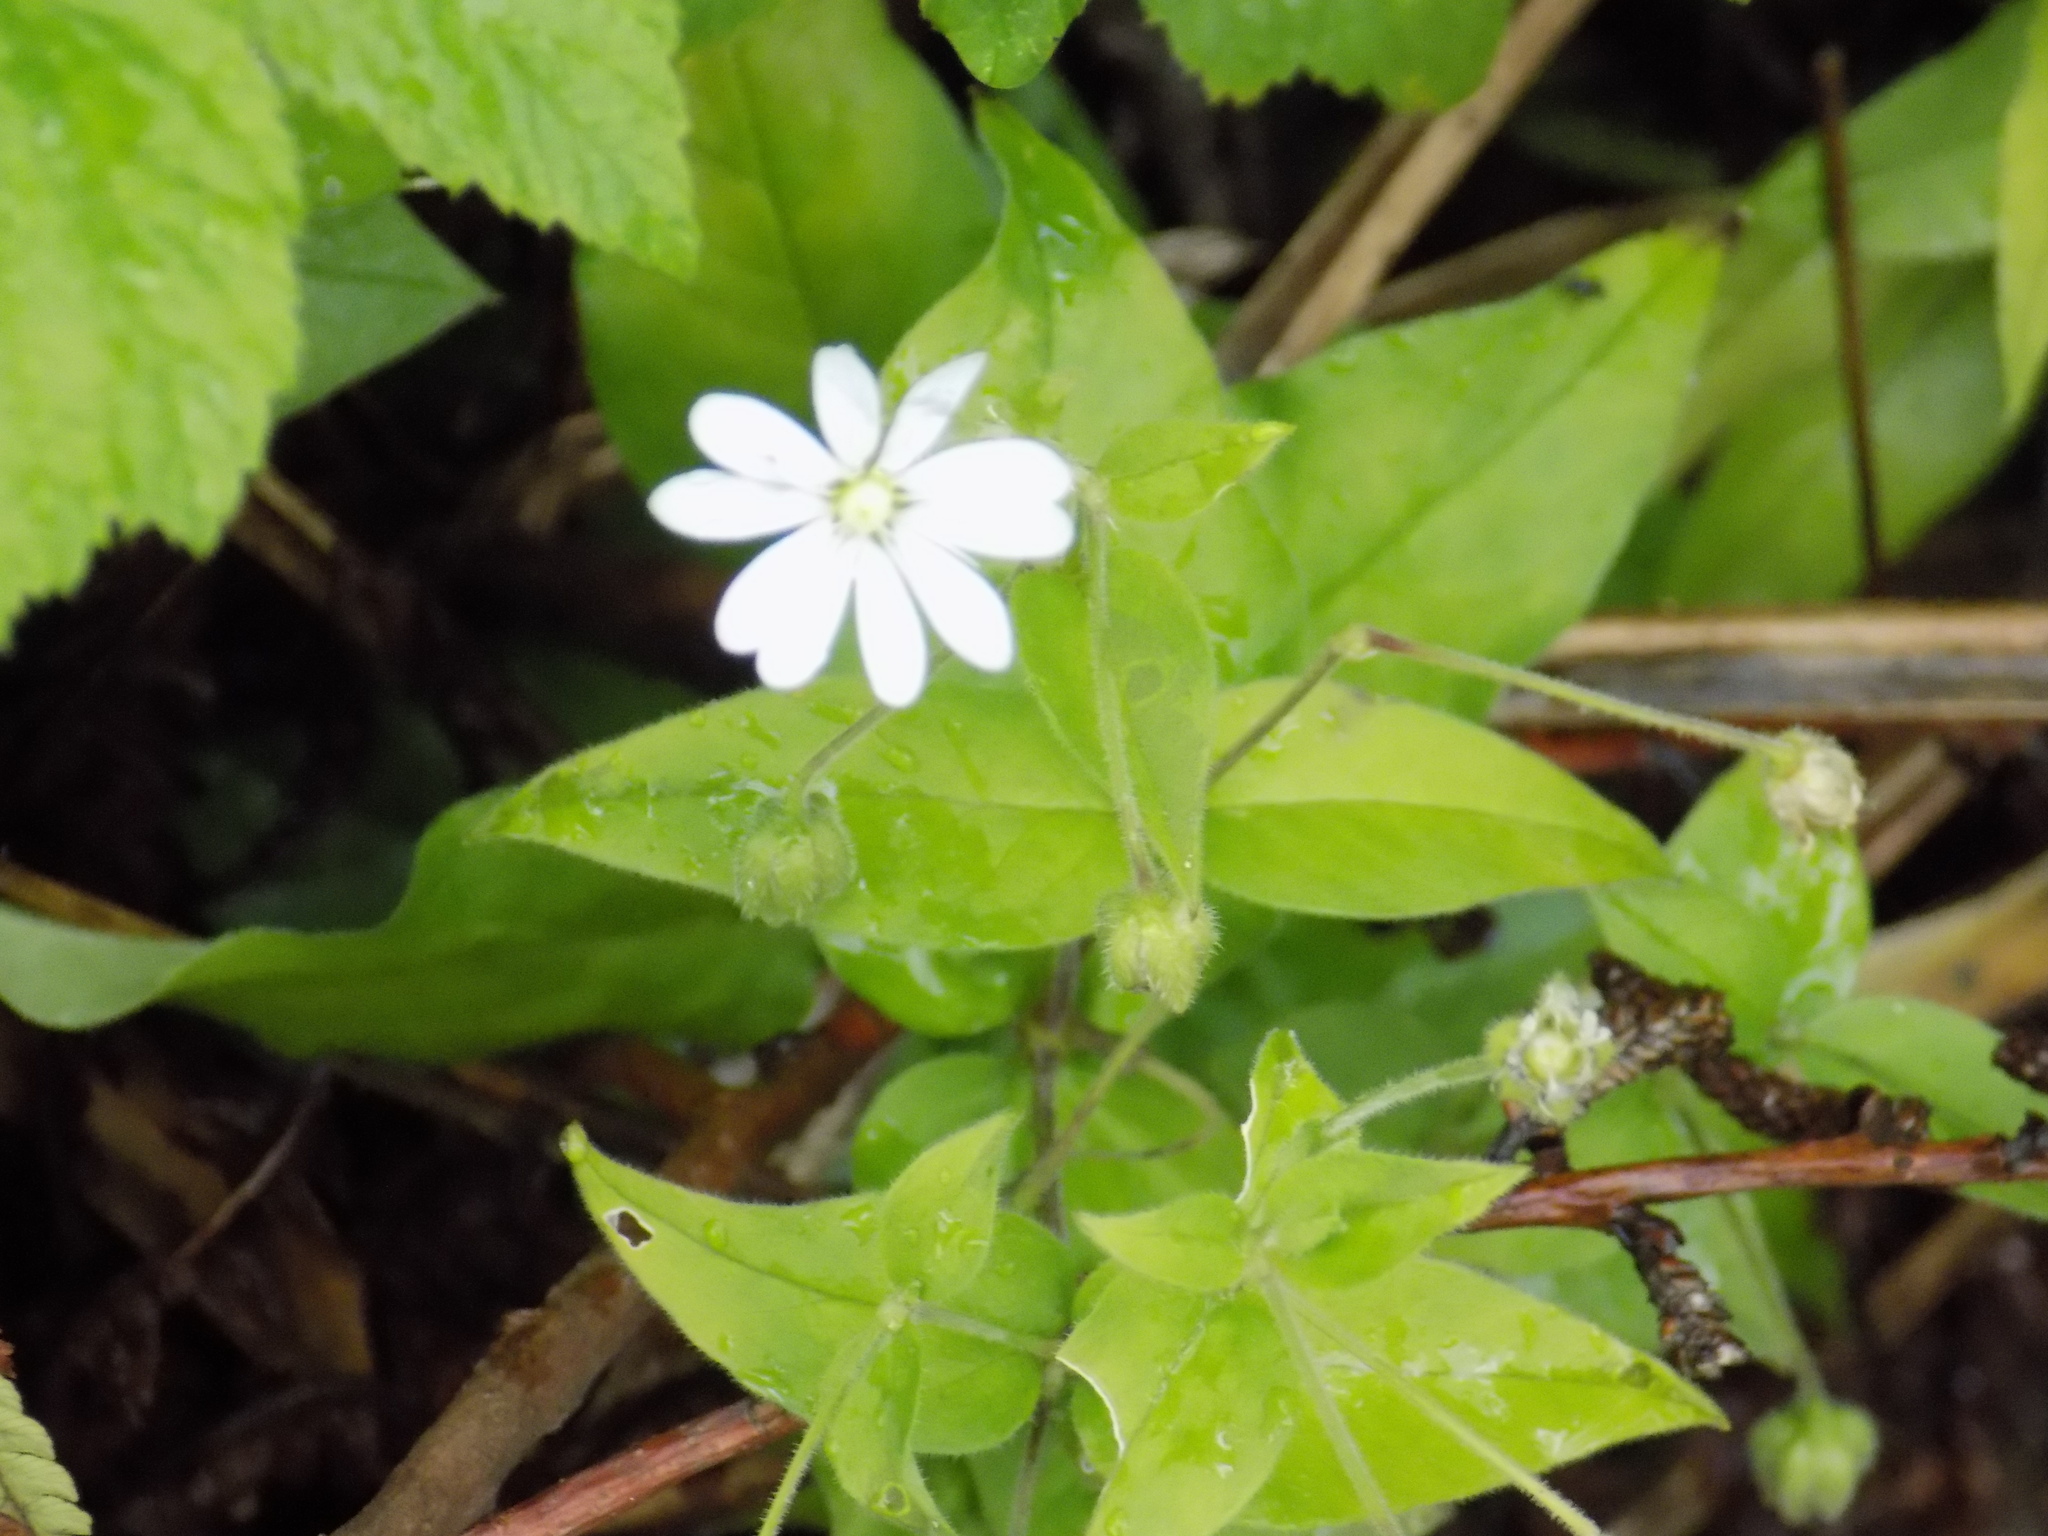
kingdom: Plantae
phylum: Tracheophyta
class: Magnoliopsida
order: Caryophyllales
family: Caryophyllaceae
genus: Stellaria
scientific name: Stellaria bungeana
